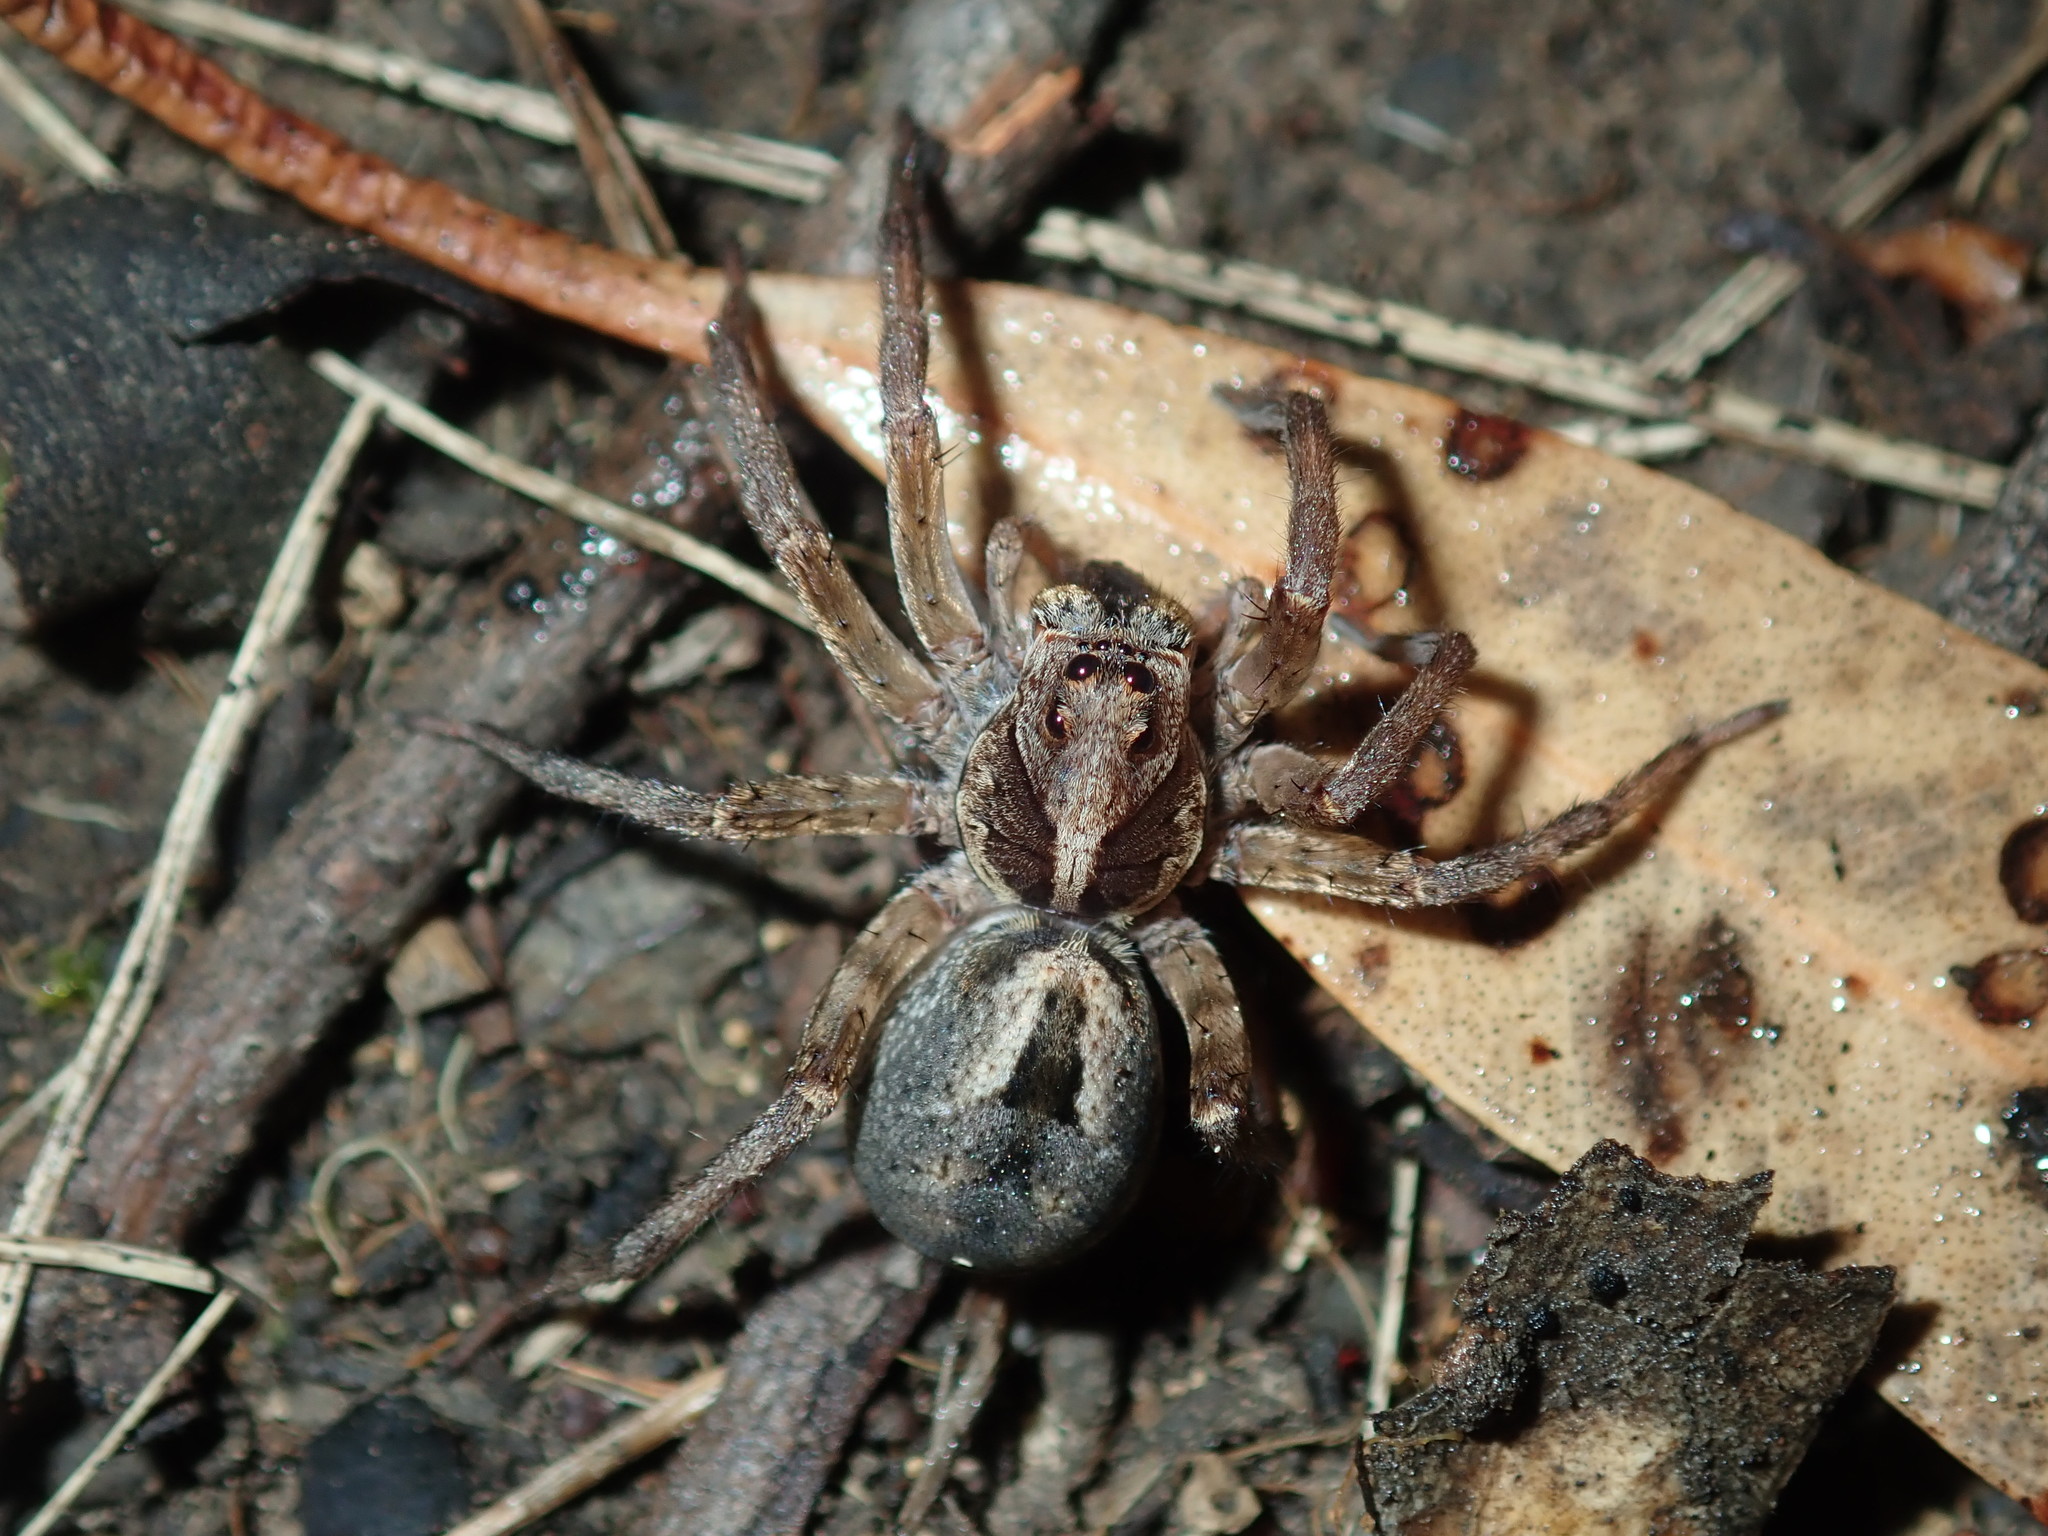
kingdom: Animalia
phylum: Arthropoda
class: Arachnida
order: Araneae
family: Lycosidae
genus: Venator
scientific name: Venator spenceri
